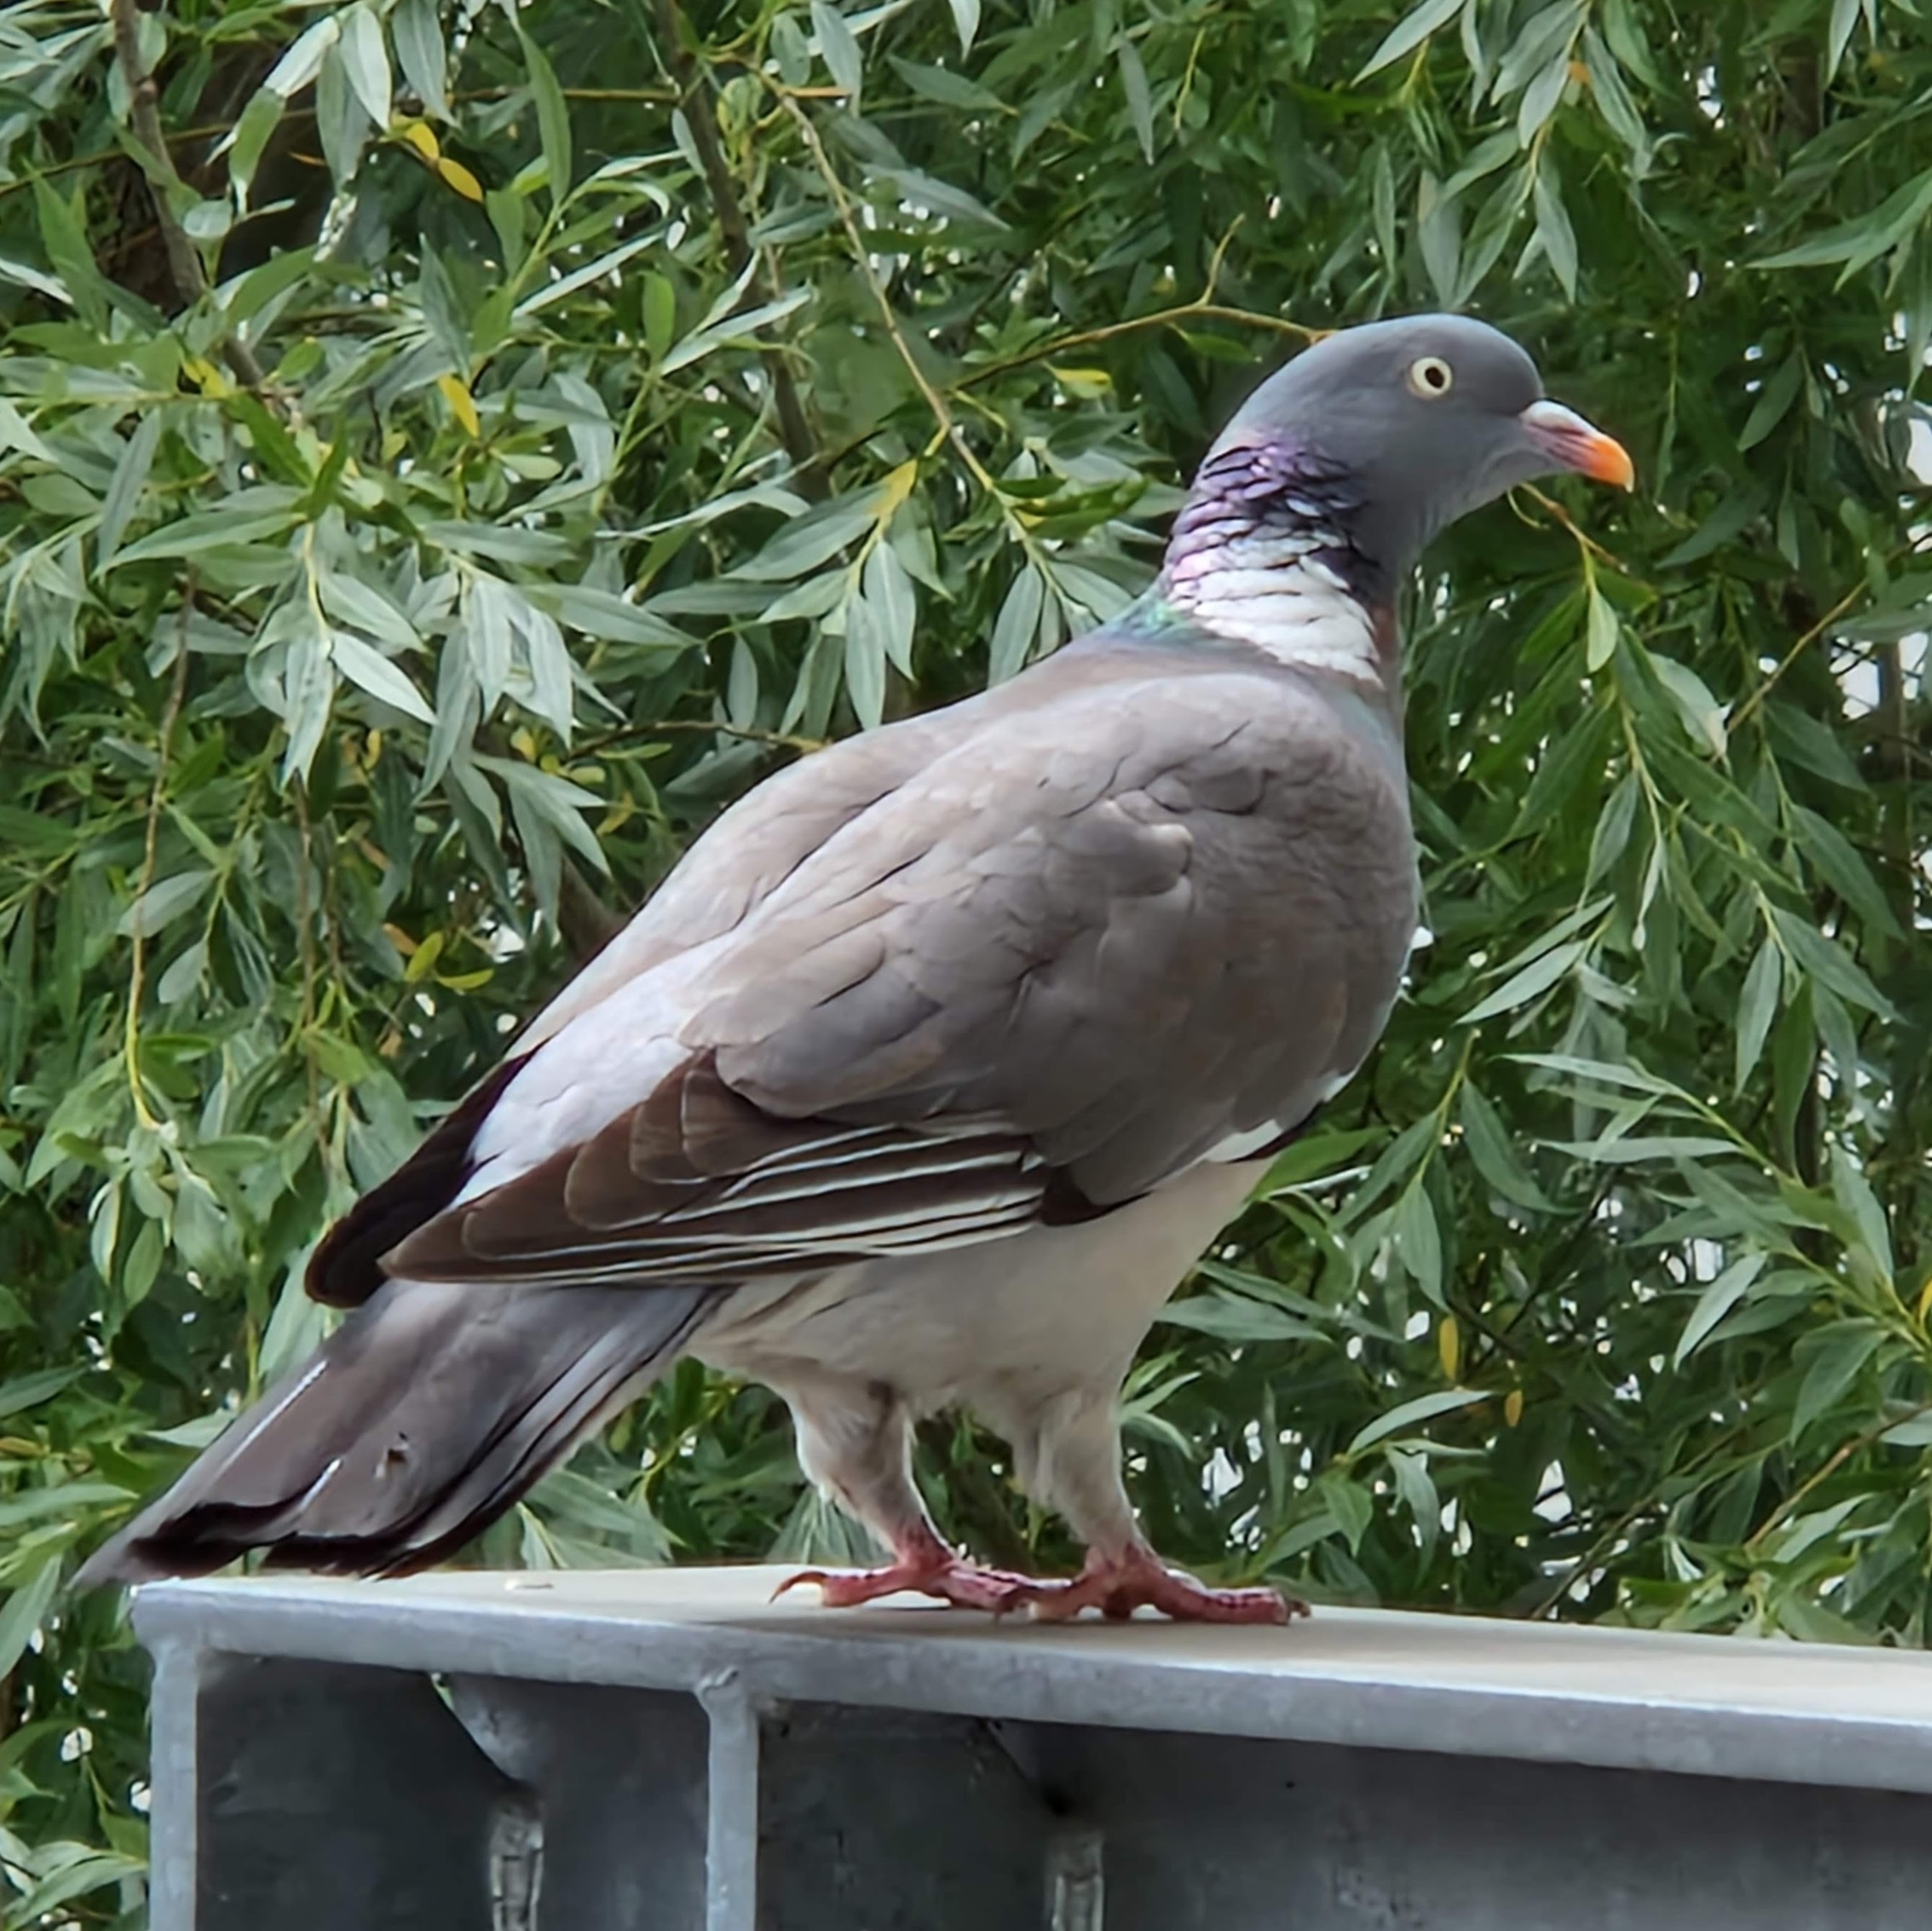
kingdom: Animalia
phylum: Chordata
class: Aves
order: Columbiformes
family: Columbidae
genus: Columba
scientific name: Columba palumbus
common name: Common wood pigeon
